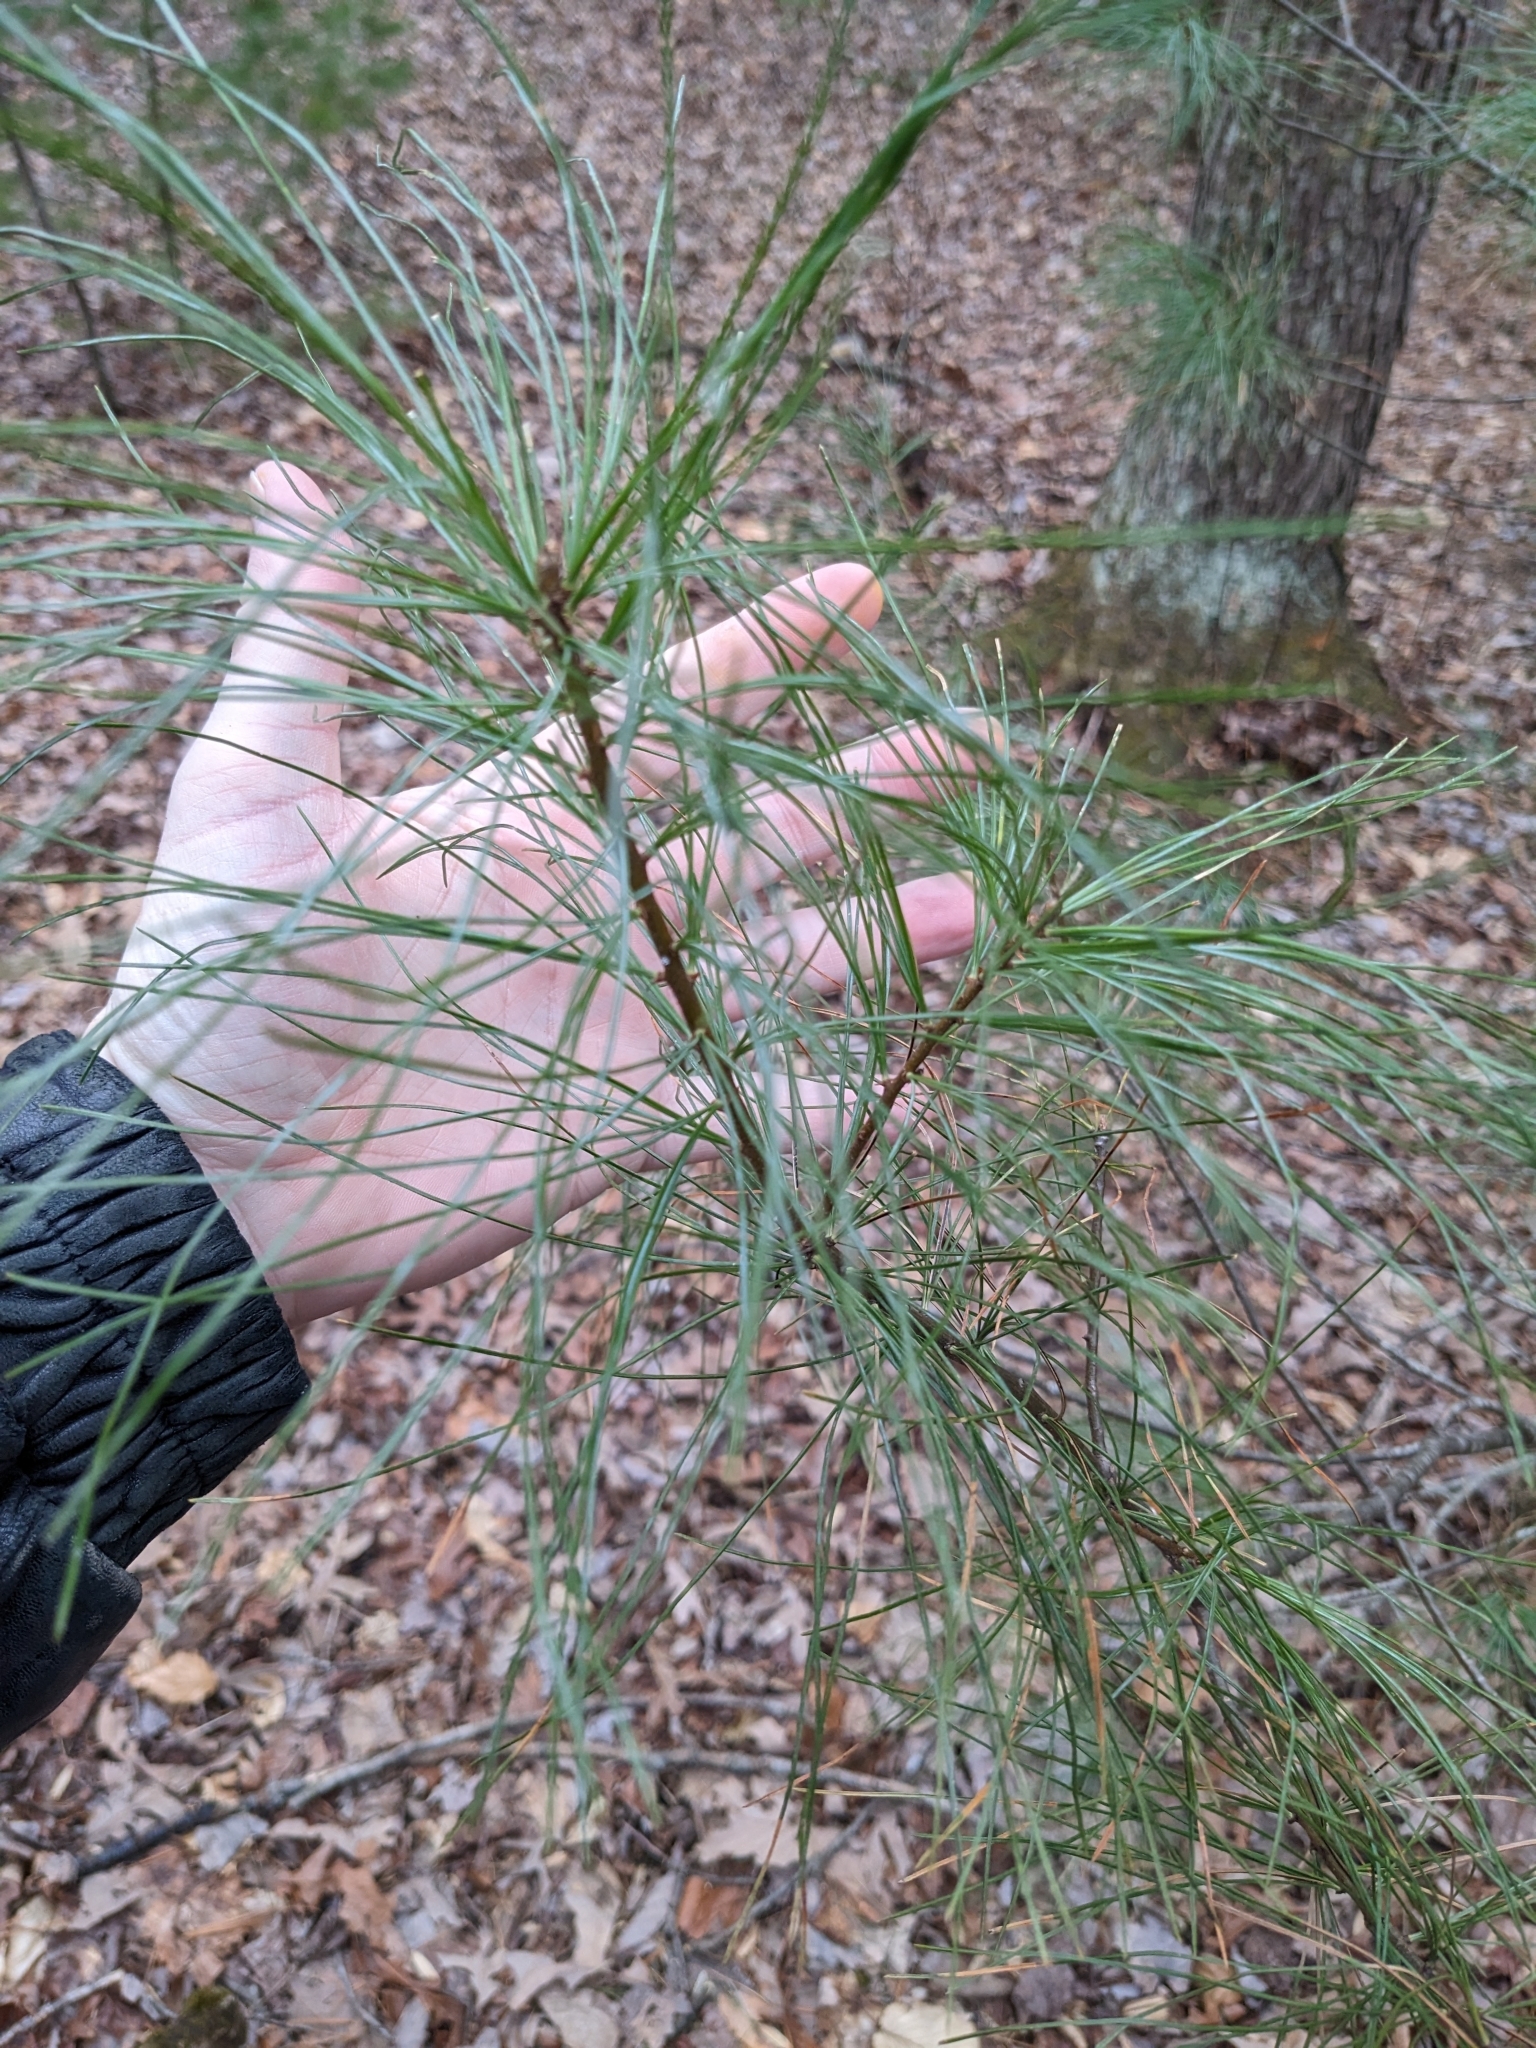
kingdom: Plantae
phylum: Tracheophyta
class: Pinopsida
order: Pinales
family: Pinaceae
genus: Pinus
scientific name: Pinus strobus
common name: Weymouth pine
